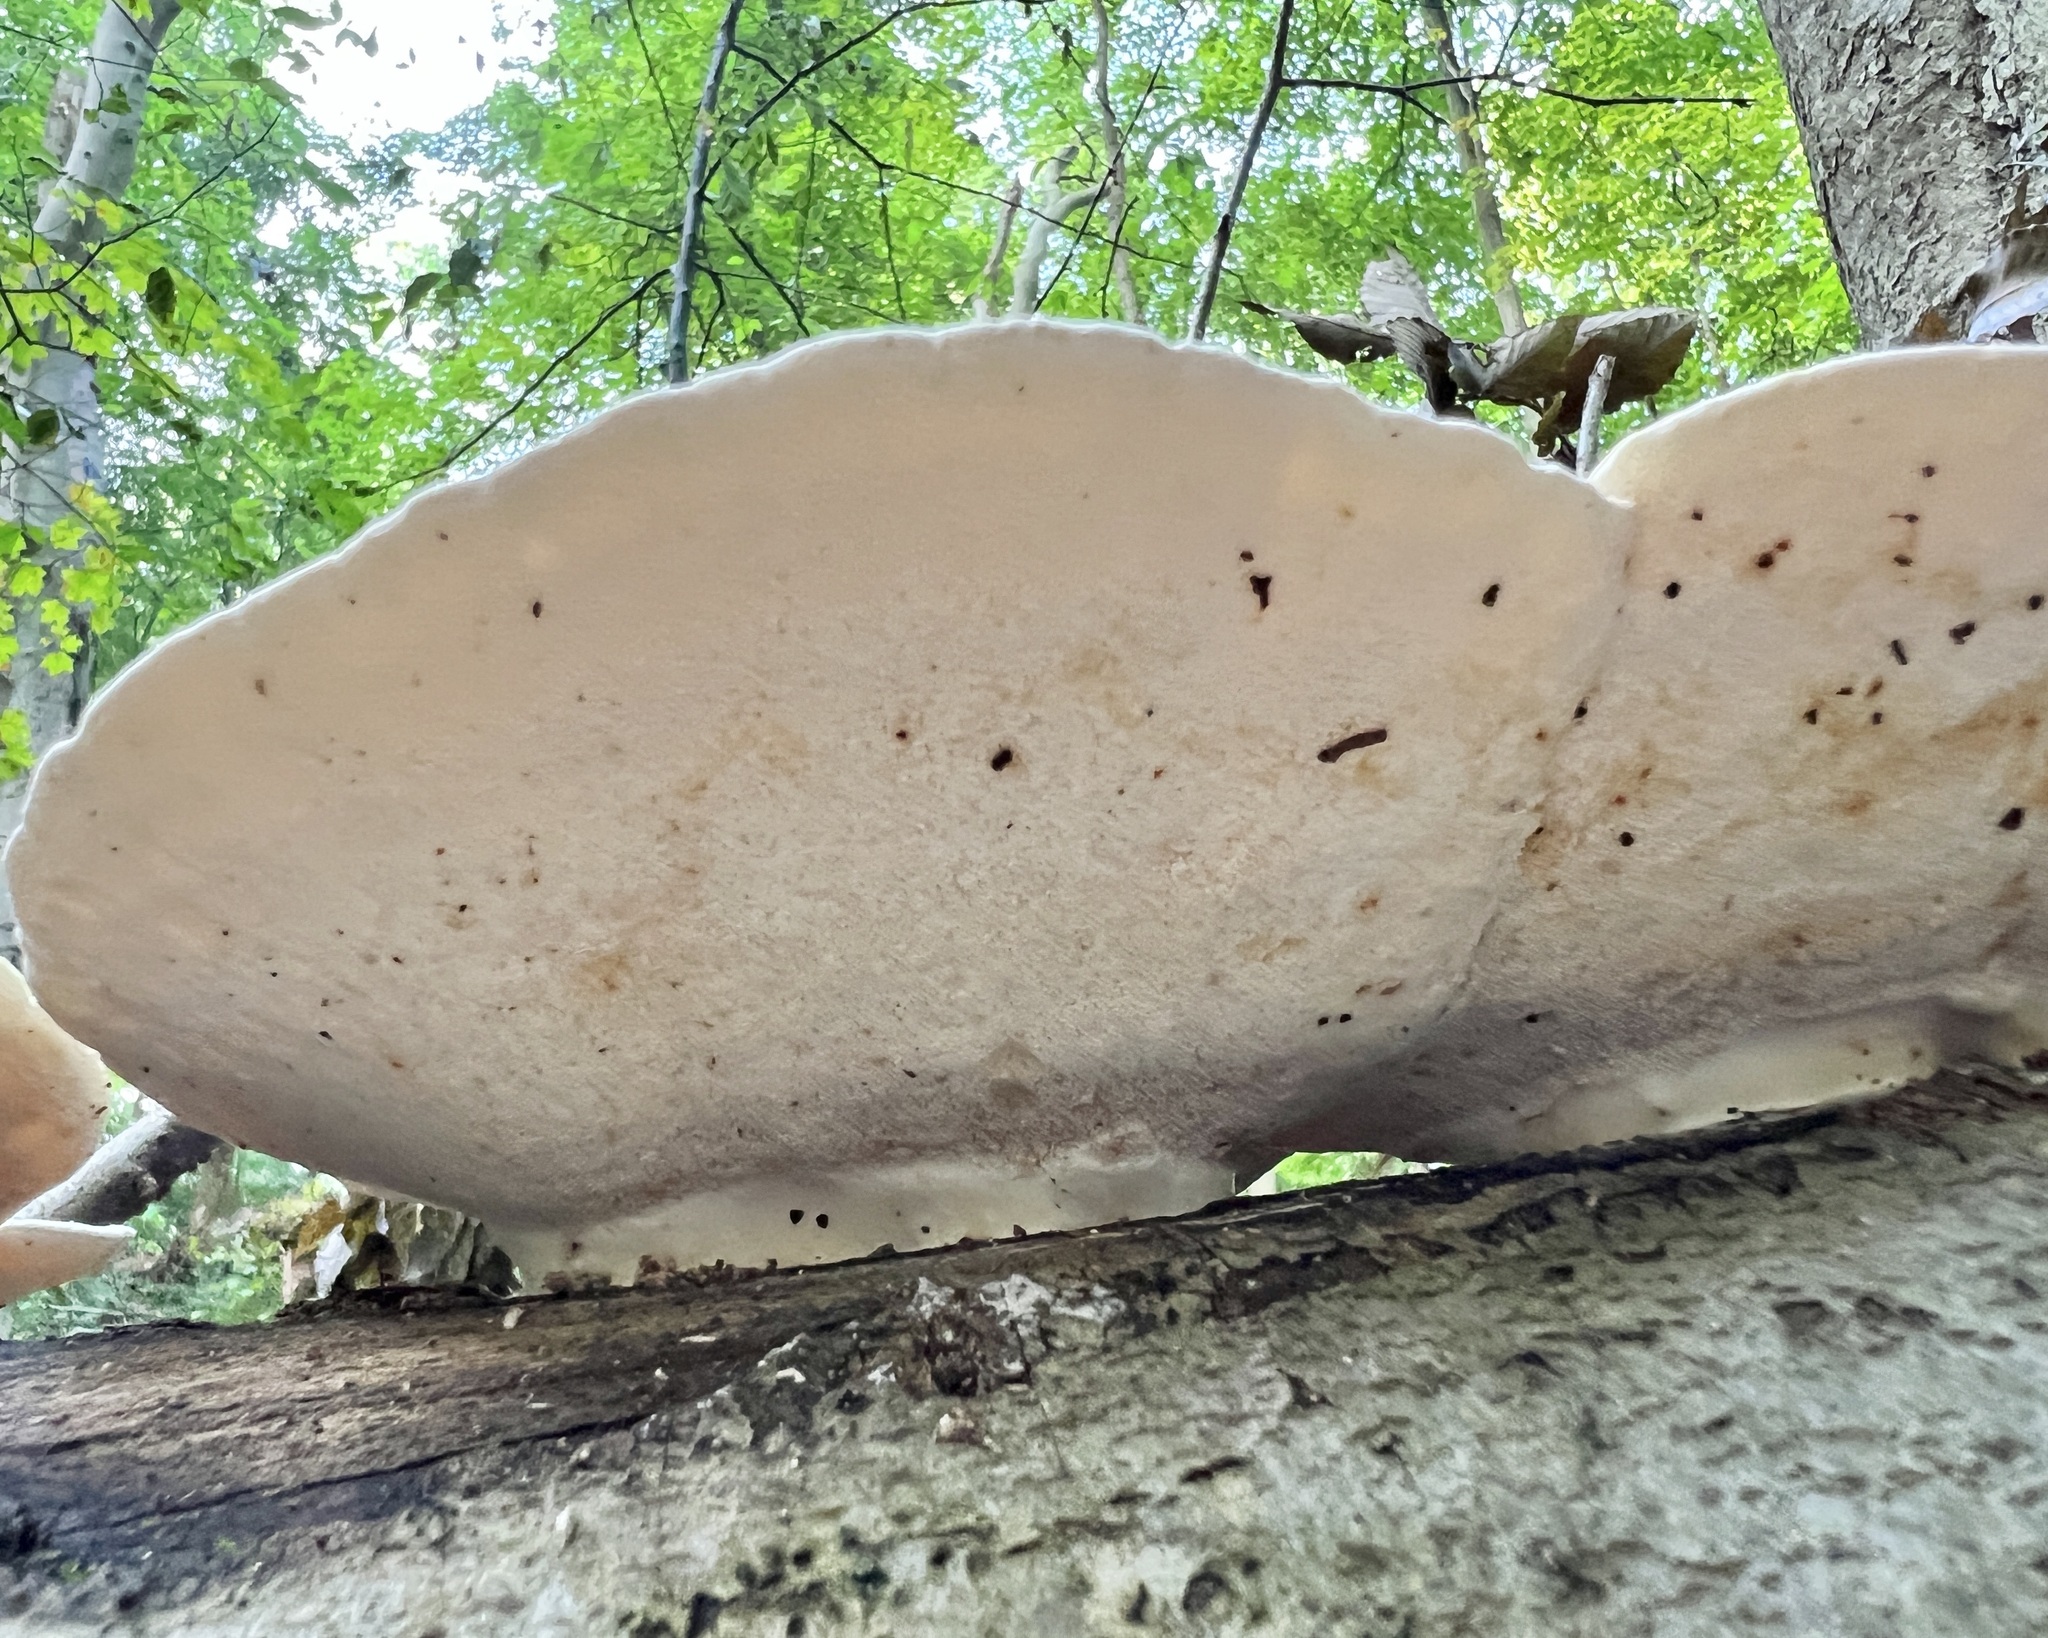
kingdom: Fungi
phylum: Basidiomycota
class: Agaricomycetes
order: Polyporales
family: Polyporaceae
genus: Trametes
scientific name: Trametes
